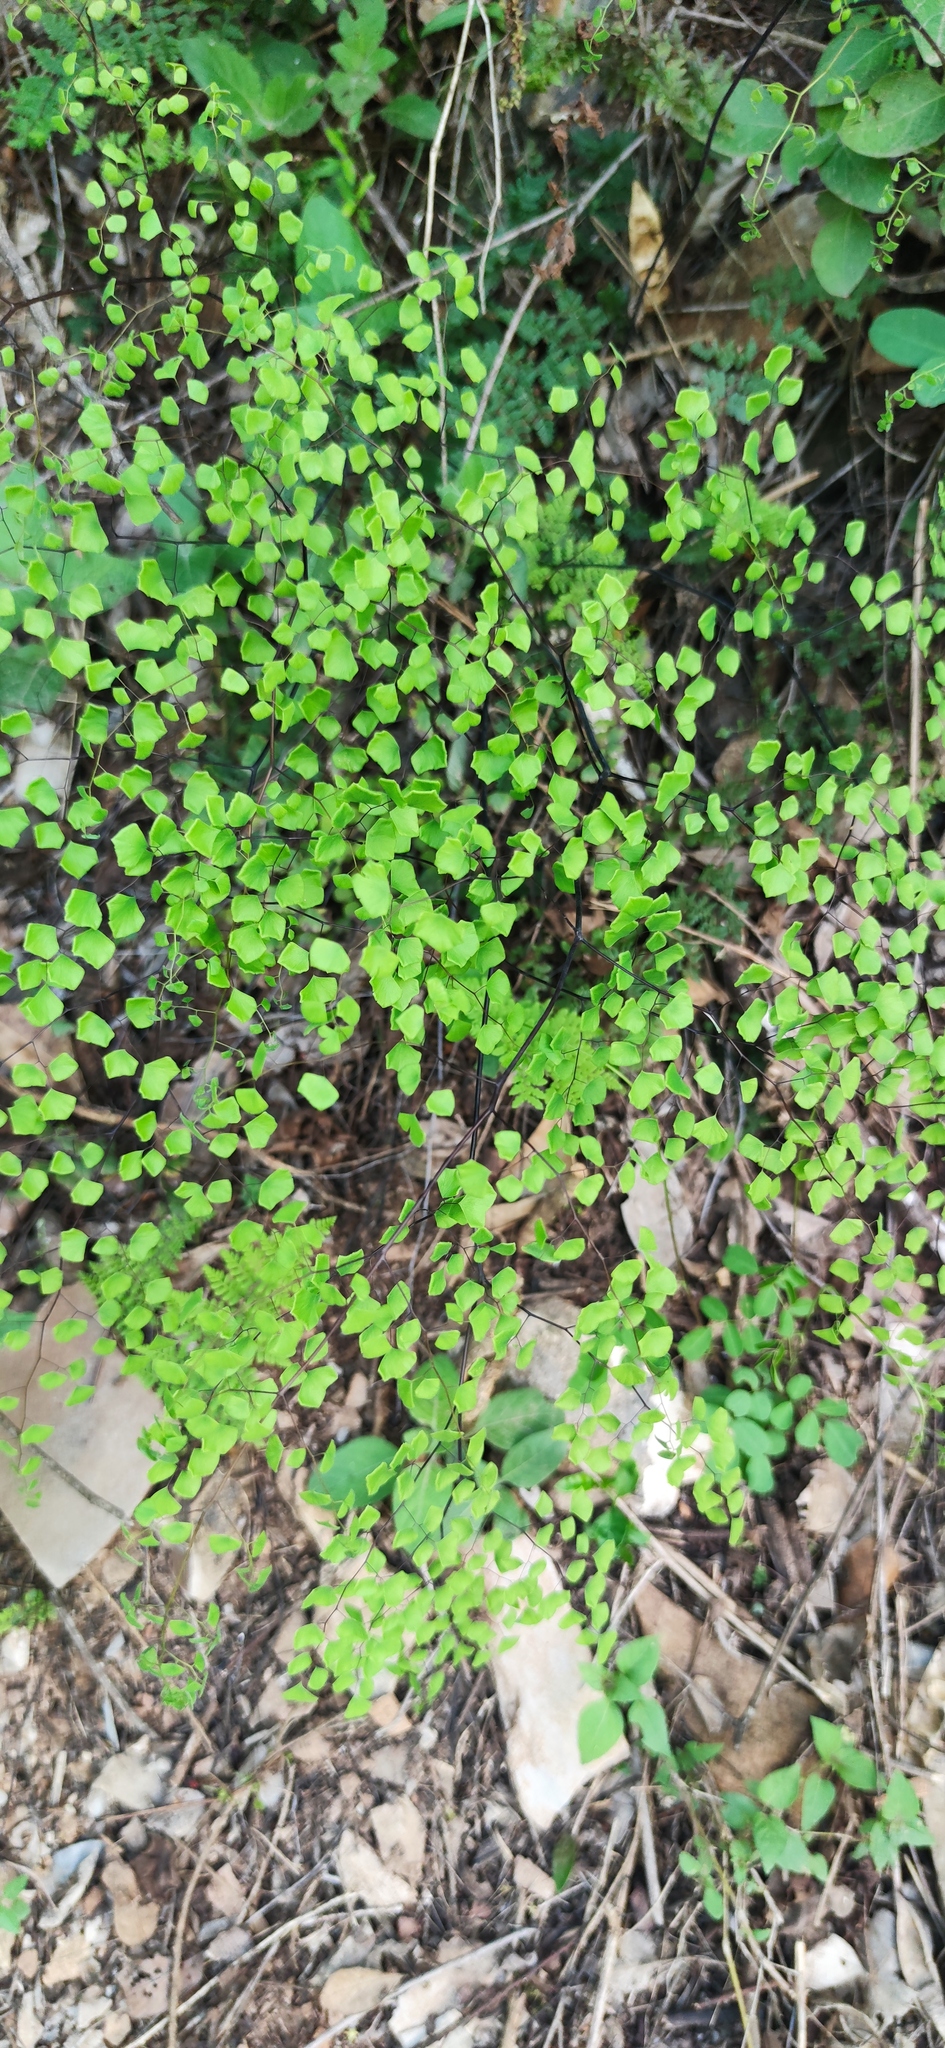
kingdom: Plantae
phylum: Tracheophyta
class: Polypodiopsida
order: Polypodiales
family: Pteridaceae
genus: Adiantum
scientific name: Adiantum tricholepis
